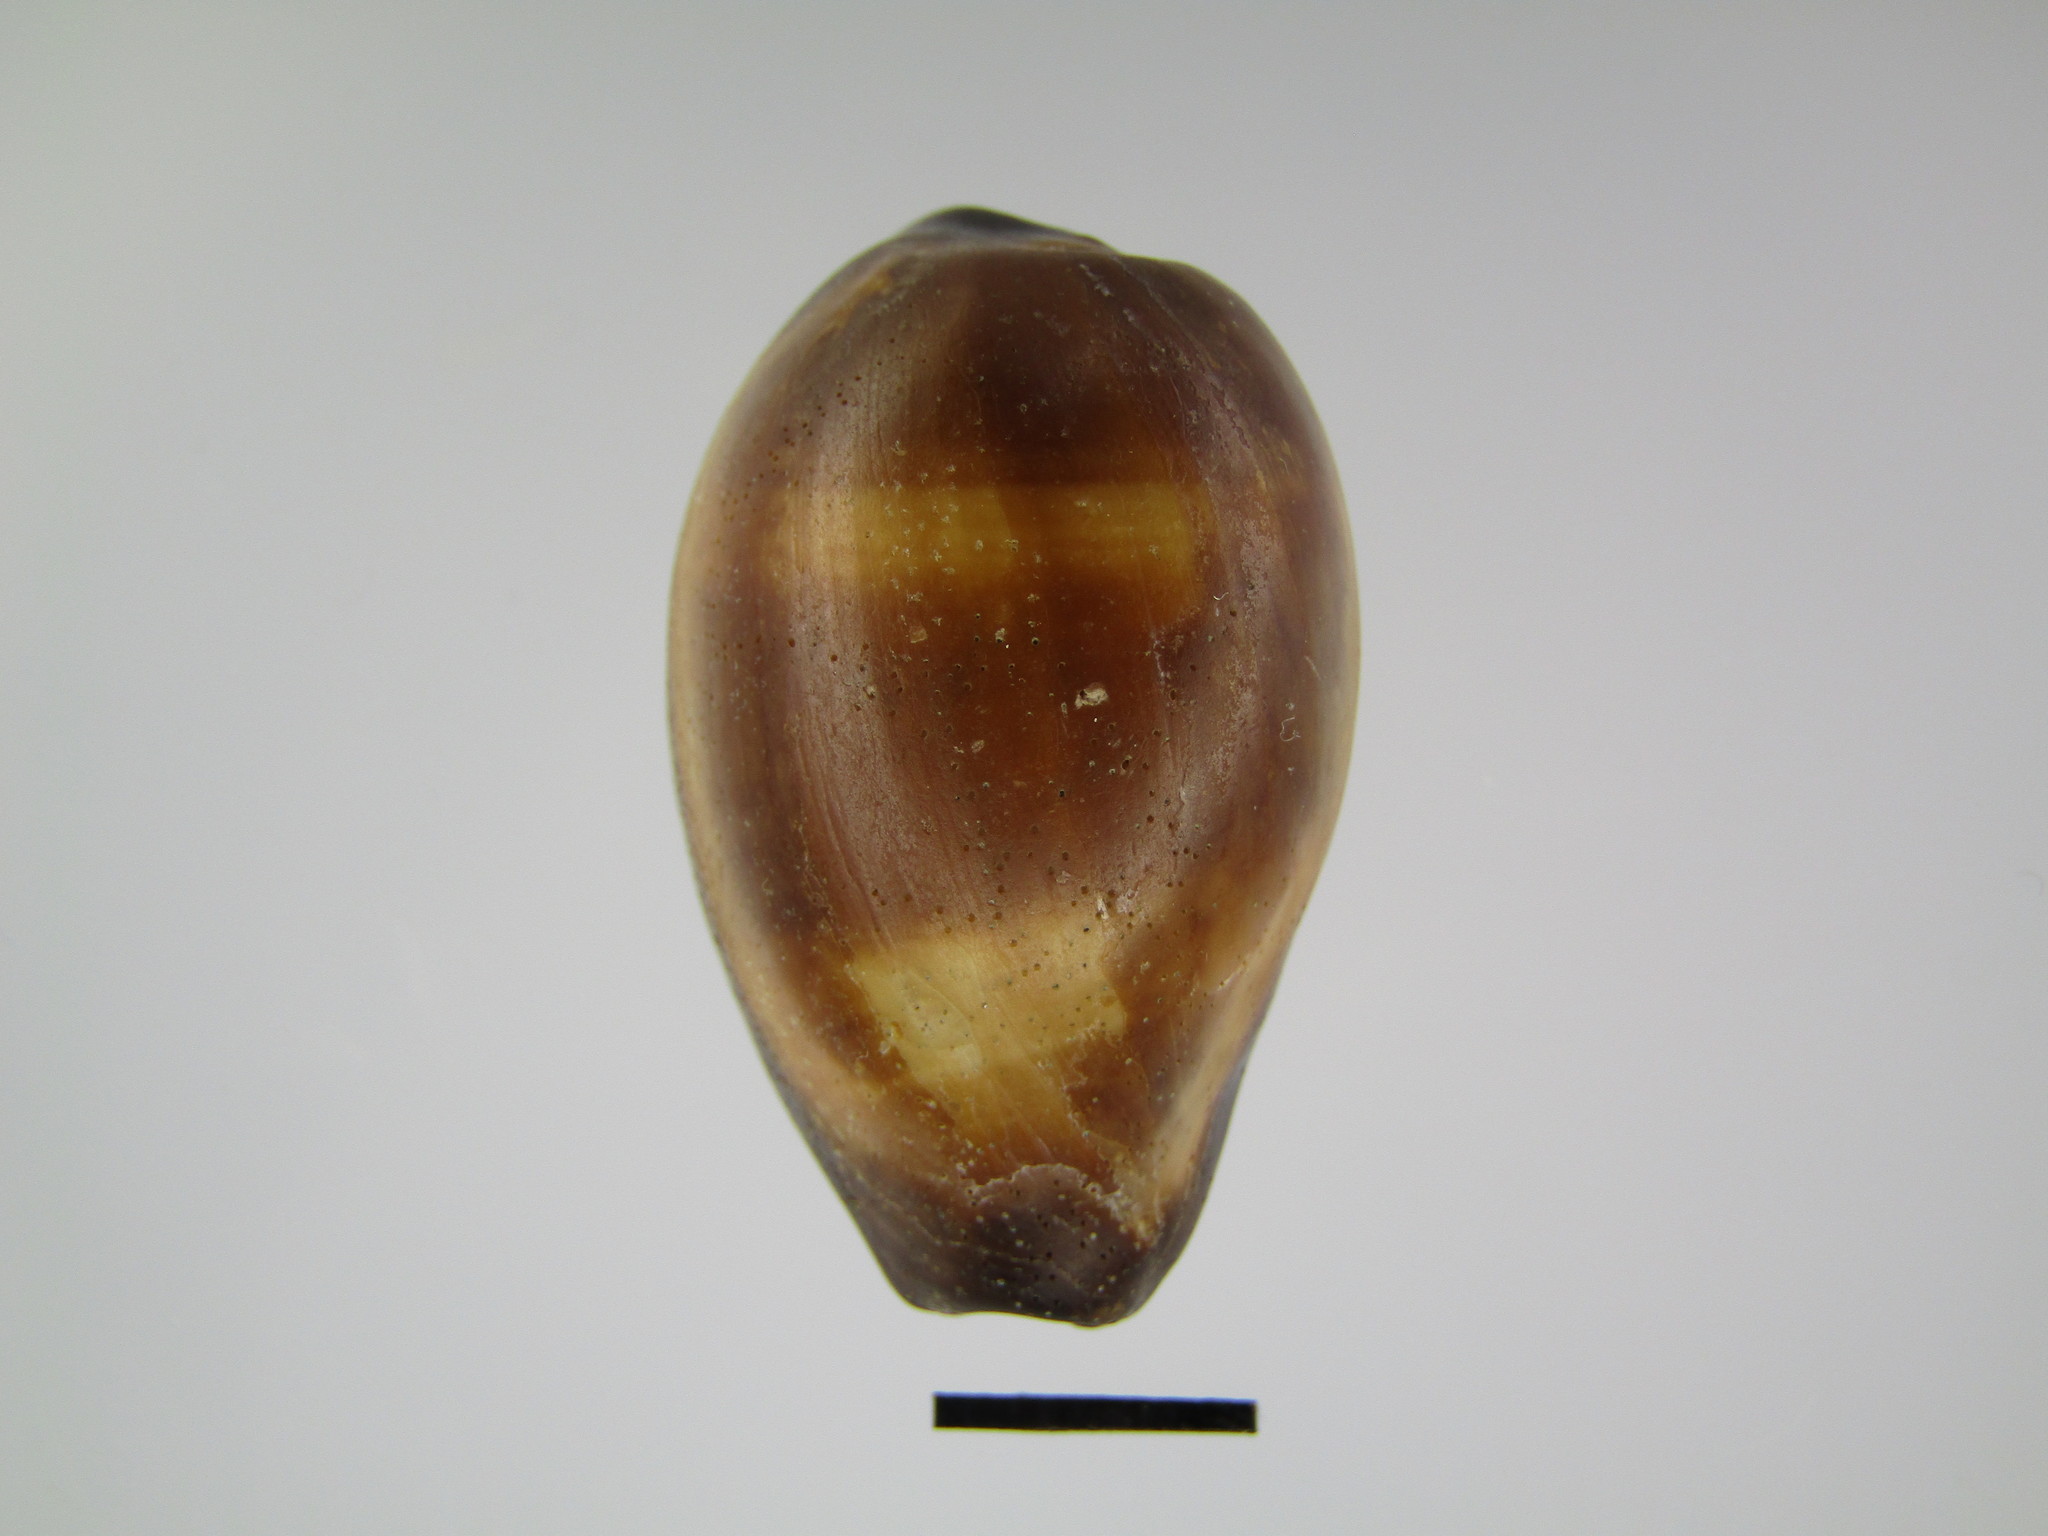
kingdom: Animalia
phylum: Mollusca
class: Gastropoda
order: Littorinimorpha
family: Cypraeidae
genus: Erronea
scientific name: Erronea onyx
